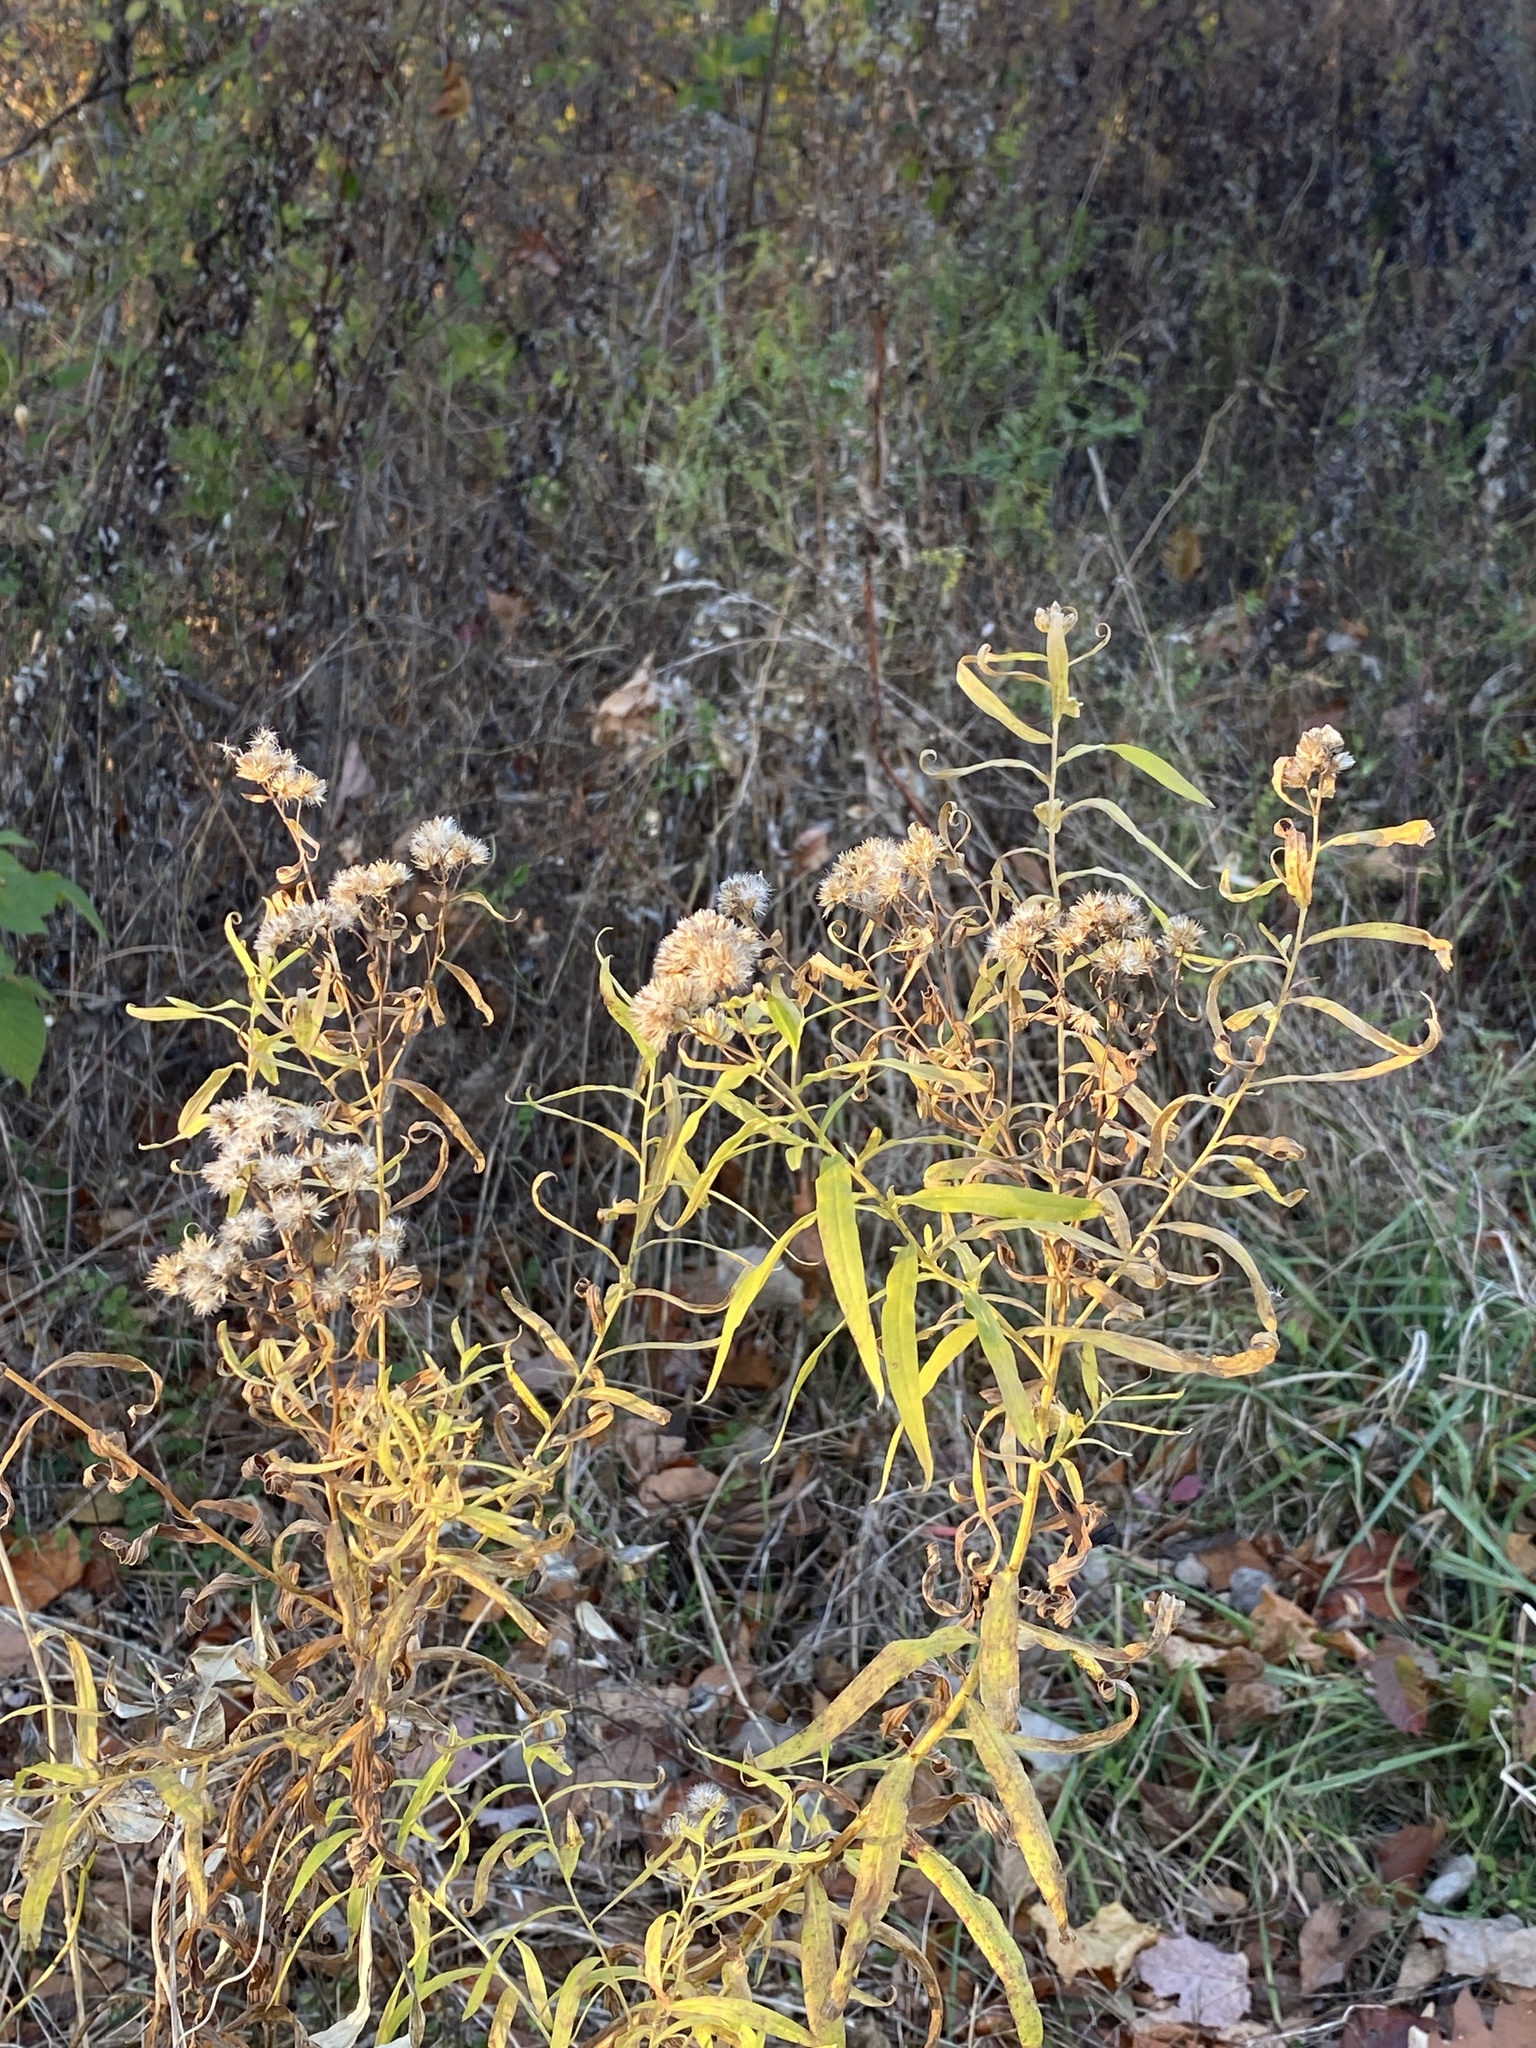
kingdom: Plantae
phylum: Tracheophyta
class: Magnoliopsida
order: Asterales
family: Asteraceae
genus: Euthamia
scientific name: Euthamia graminifolia
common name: Common goldentop
